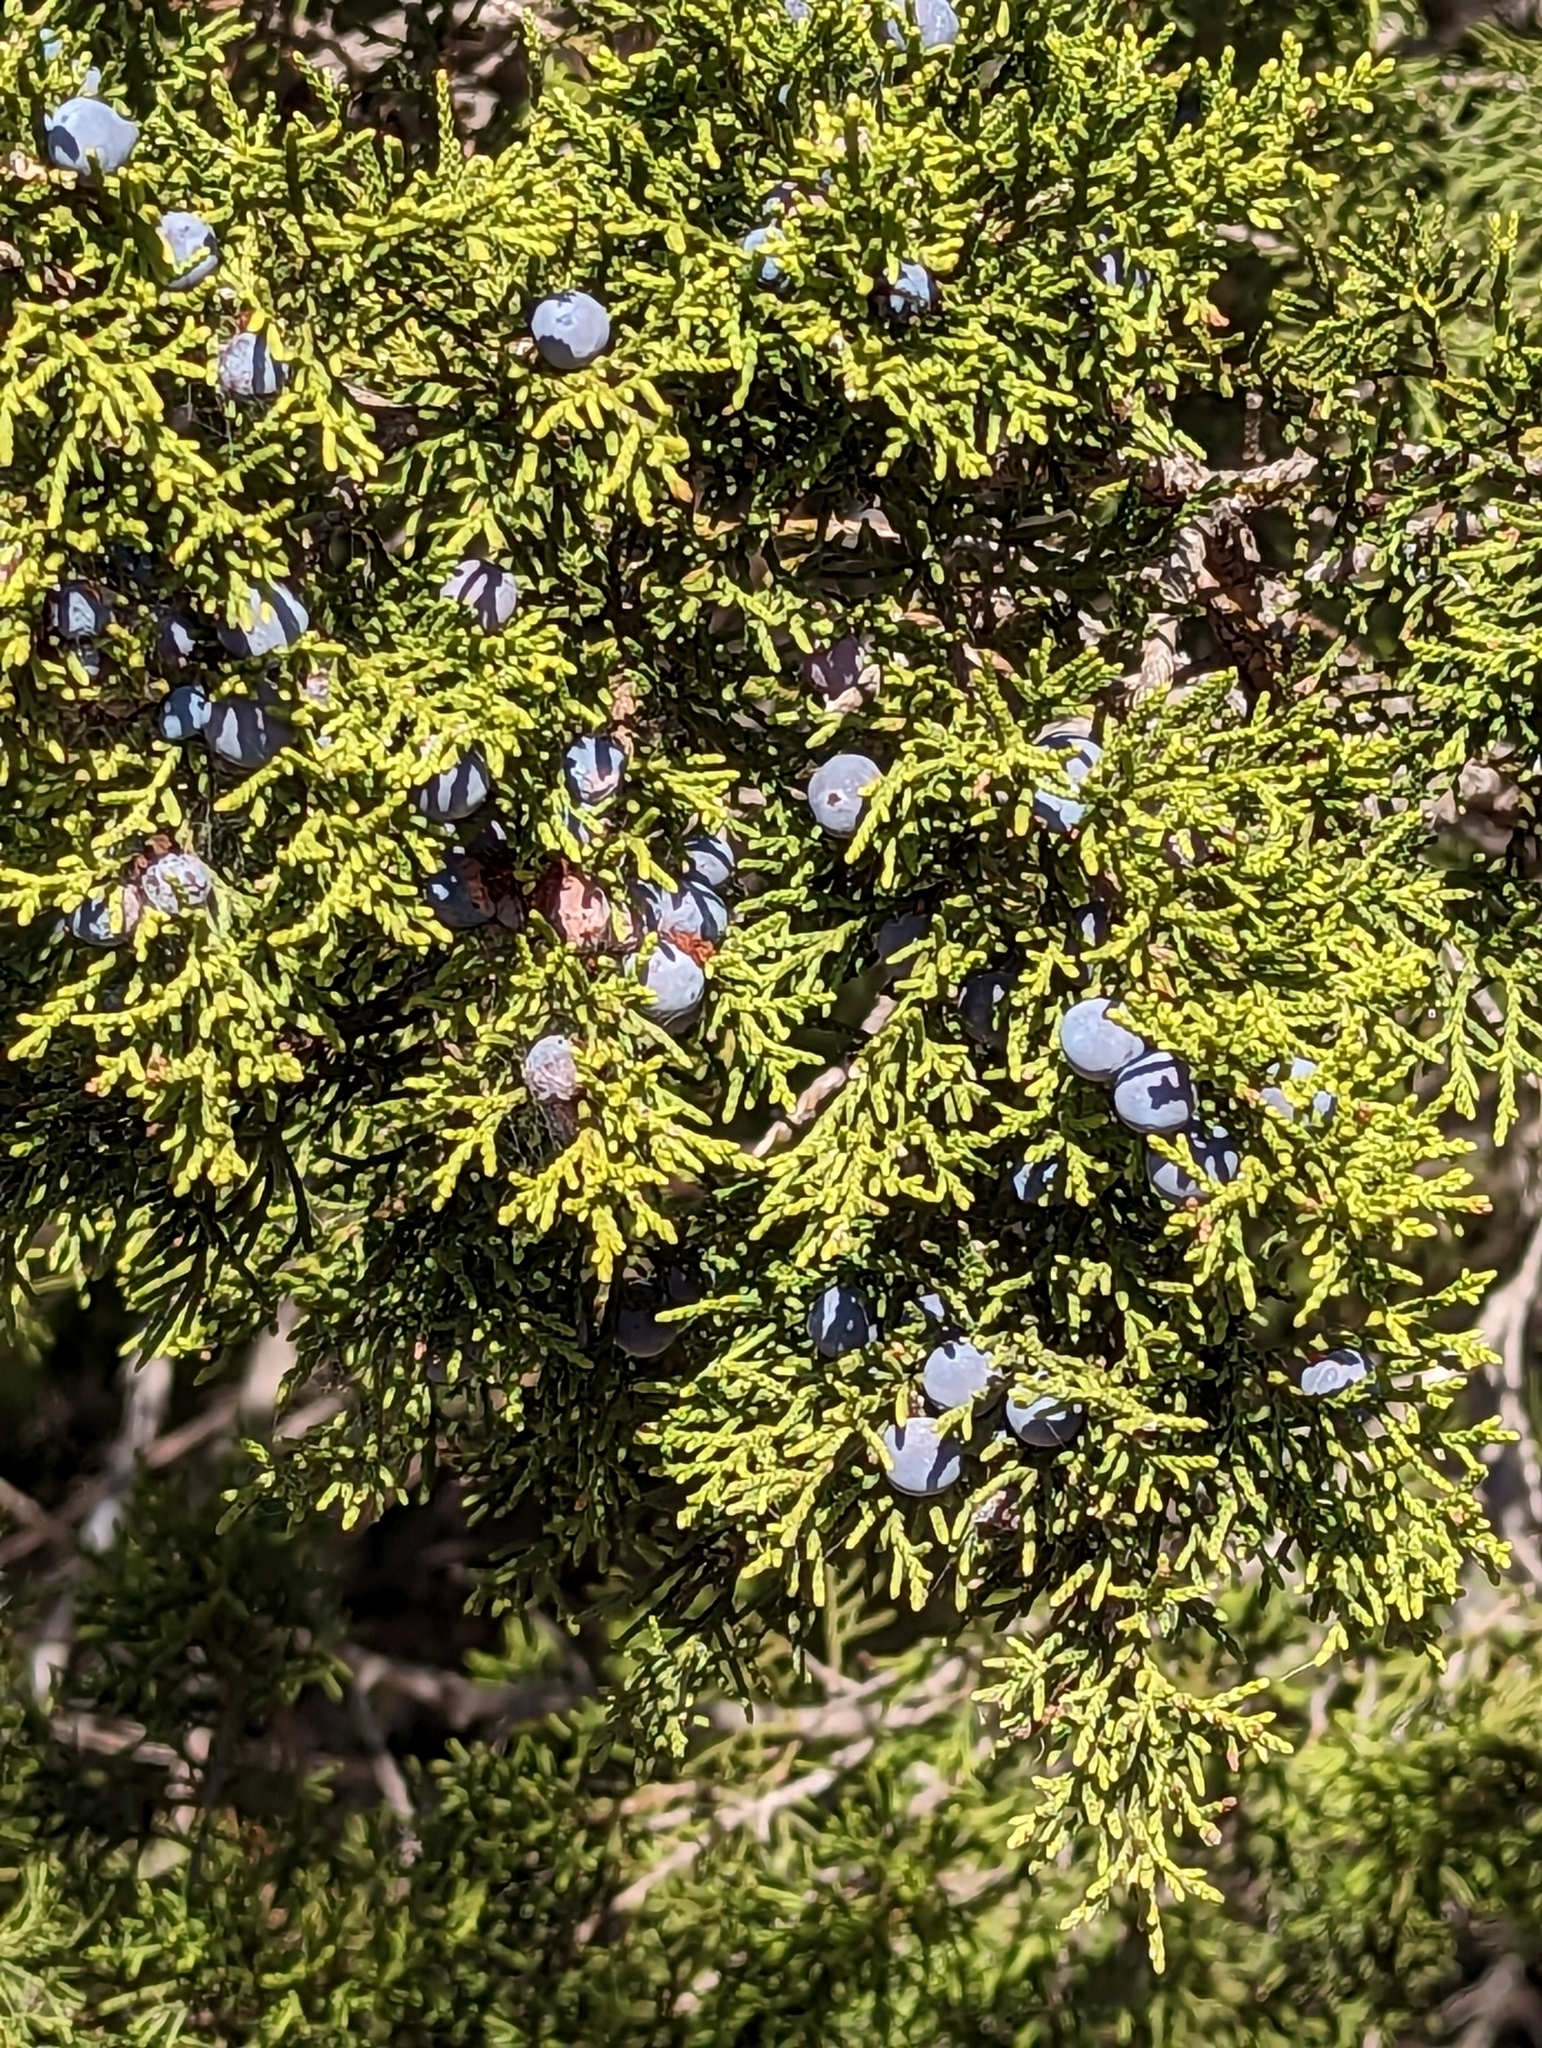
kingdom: Plantae
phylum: Tracheophyta
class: Pinopsida
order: Pinales
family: Cupressaceae
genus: Juniperus
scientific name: Juniperus ashei
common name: Mexican juniper
